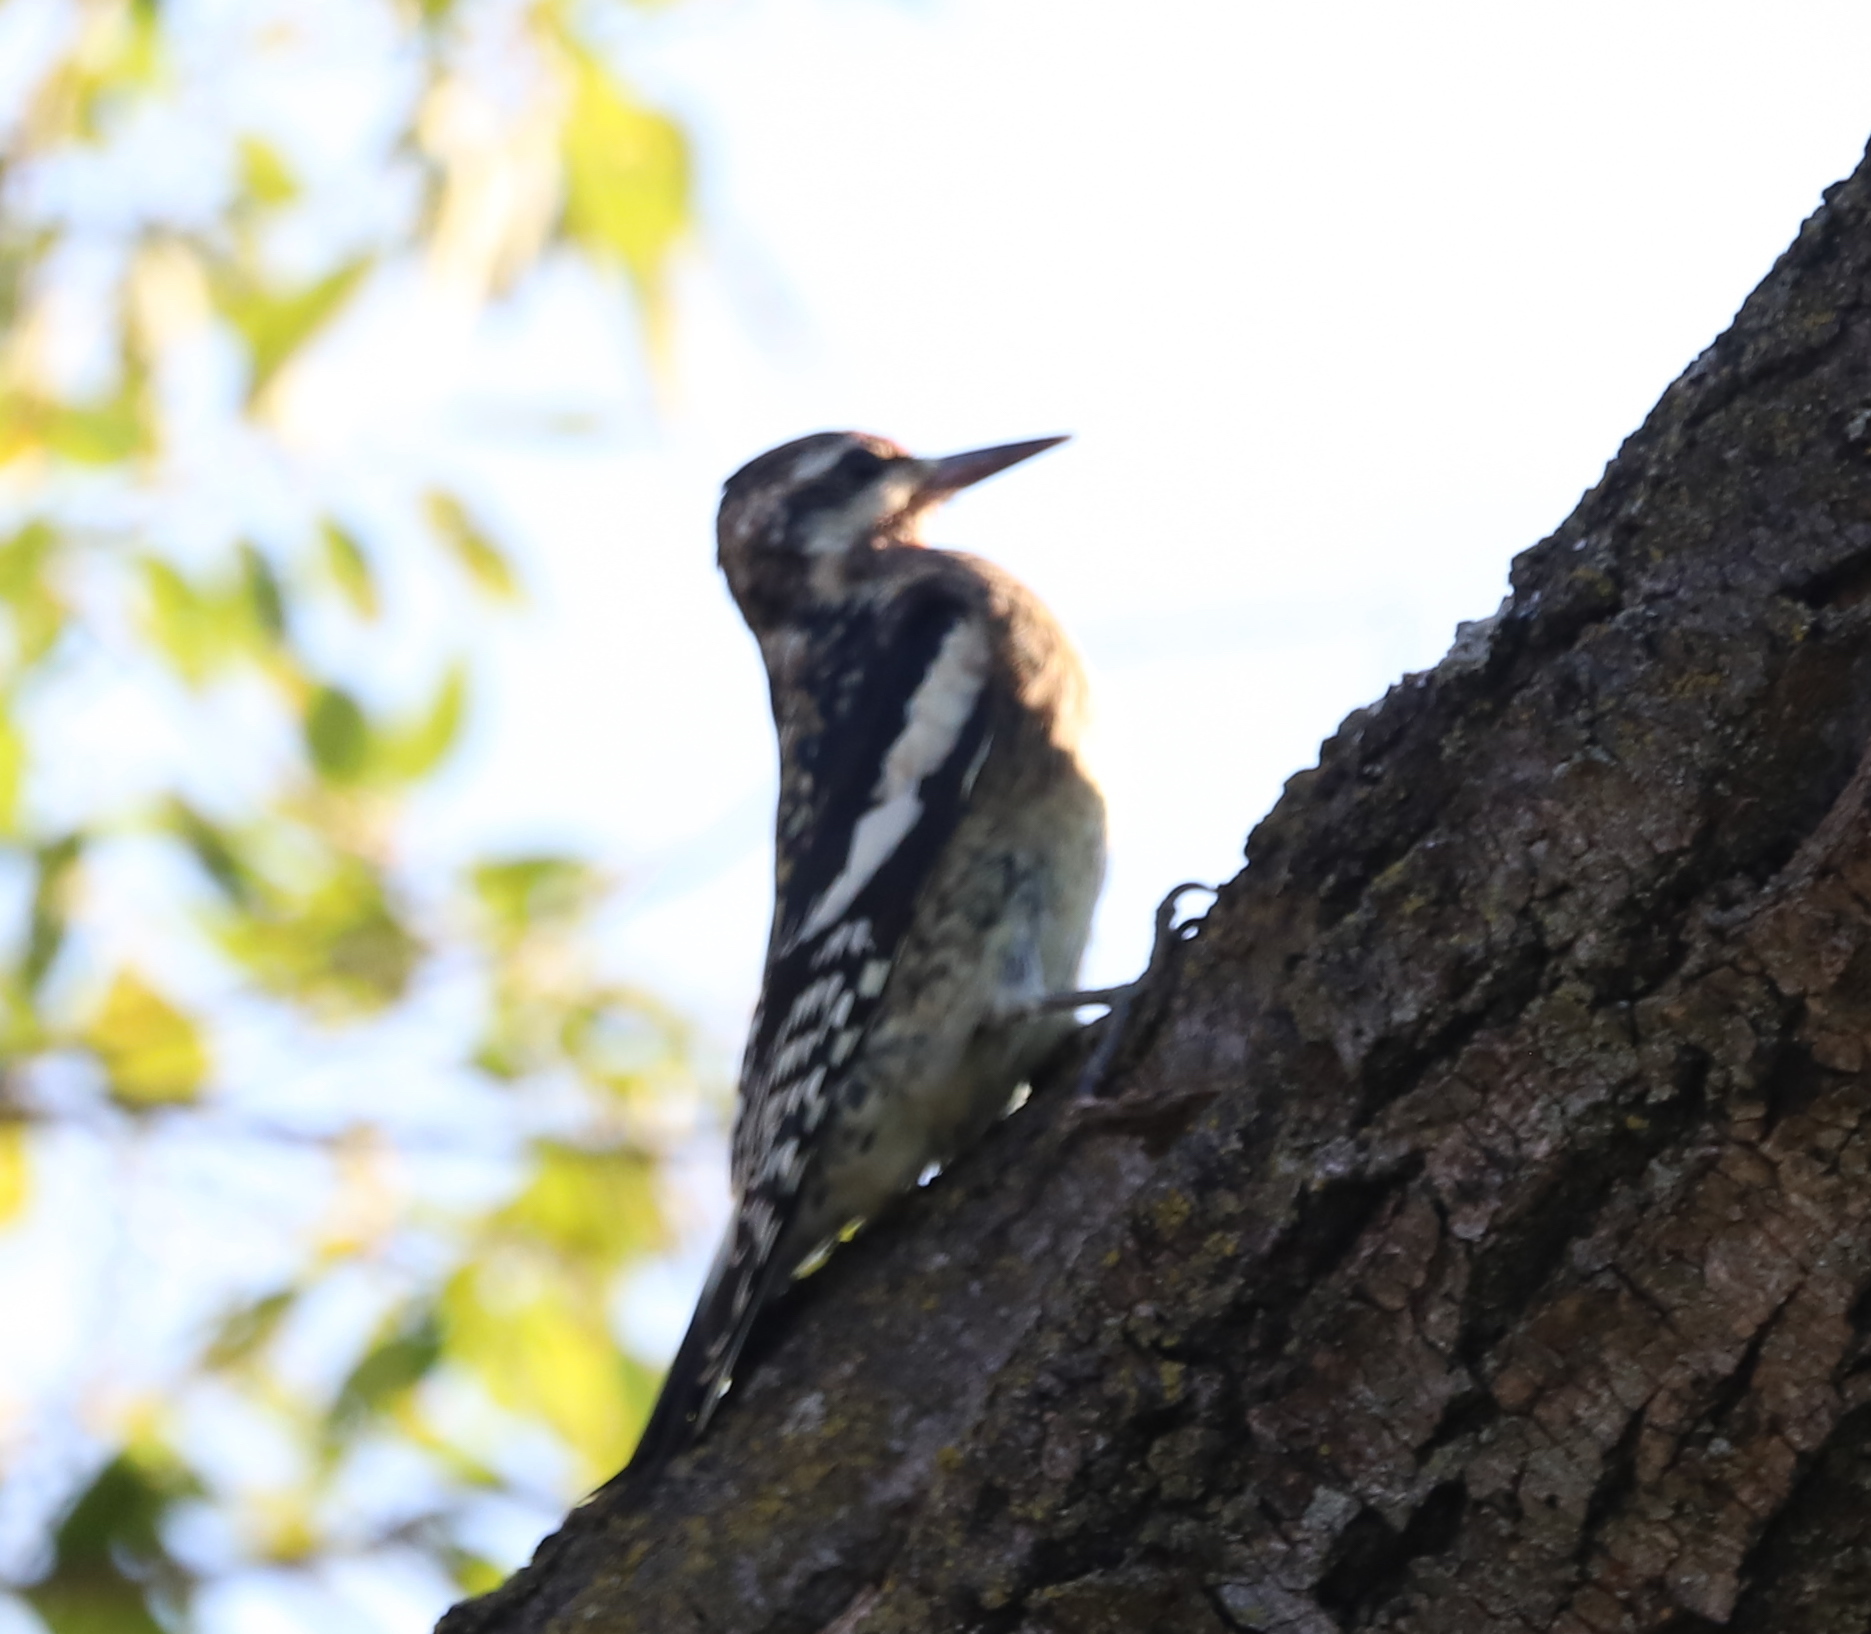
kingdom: Animalia
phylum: Chordata
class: Aves
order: Piciformes
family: Picidae
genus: Sphyrapicus
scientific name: Sphyrapicus varius
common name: Yellow-bellied sapsucker
